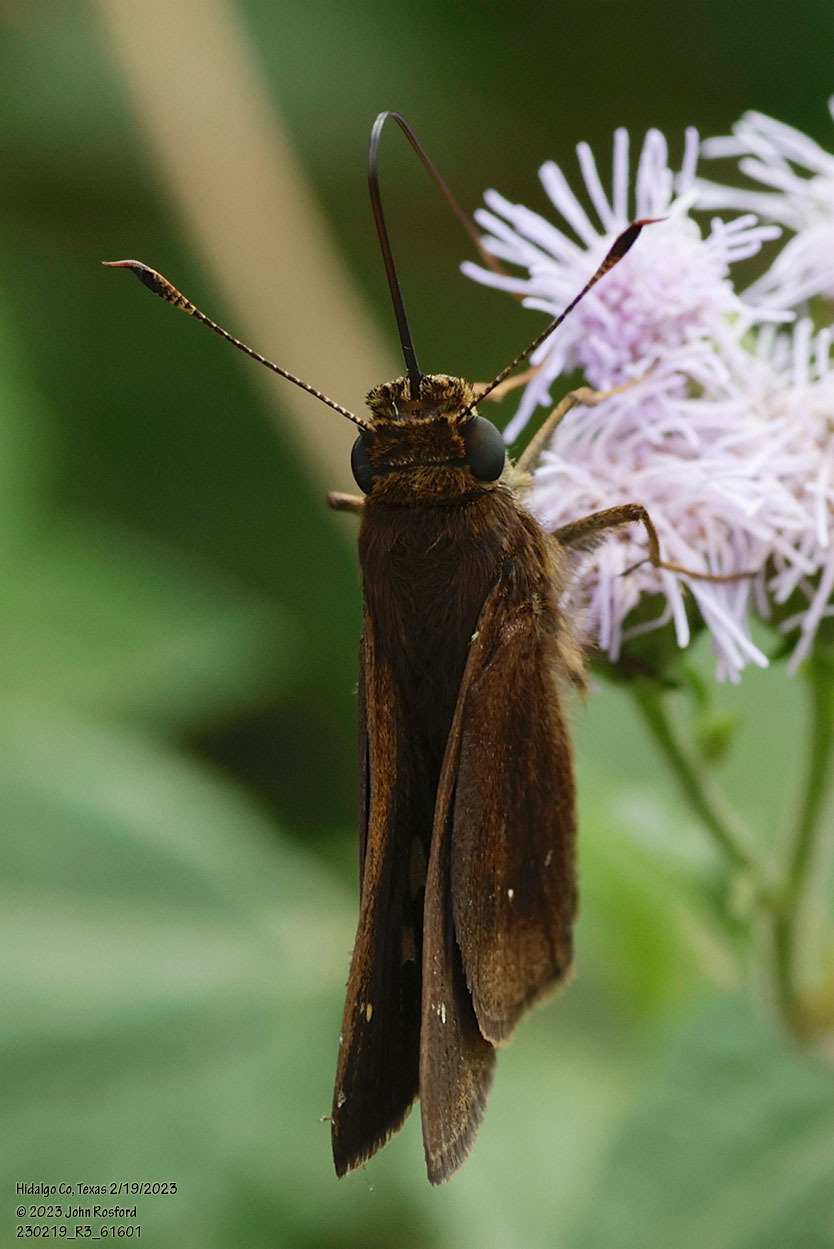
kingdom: Animalia
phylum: Arthropoda
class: Insecta
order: Lepidoptera
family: Hesperiidae
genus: Decinea
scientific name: Decinea percosius
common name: Double-dotted skipper
